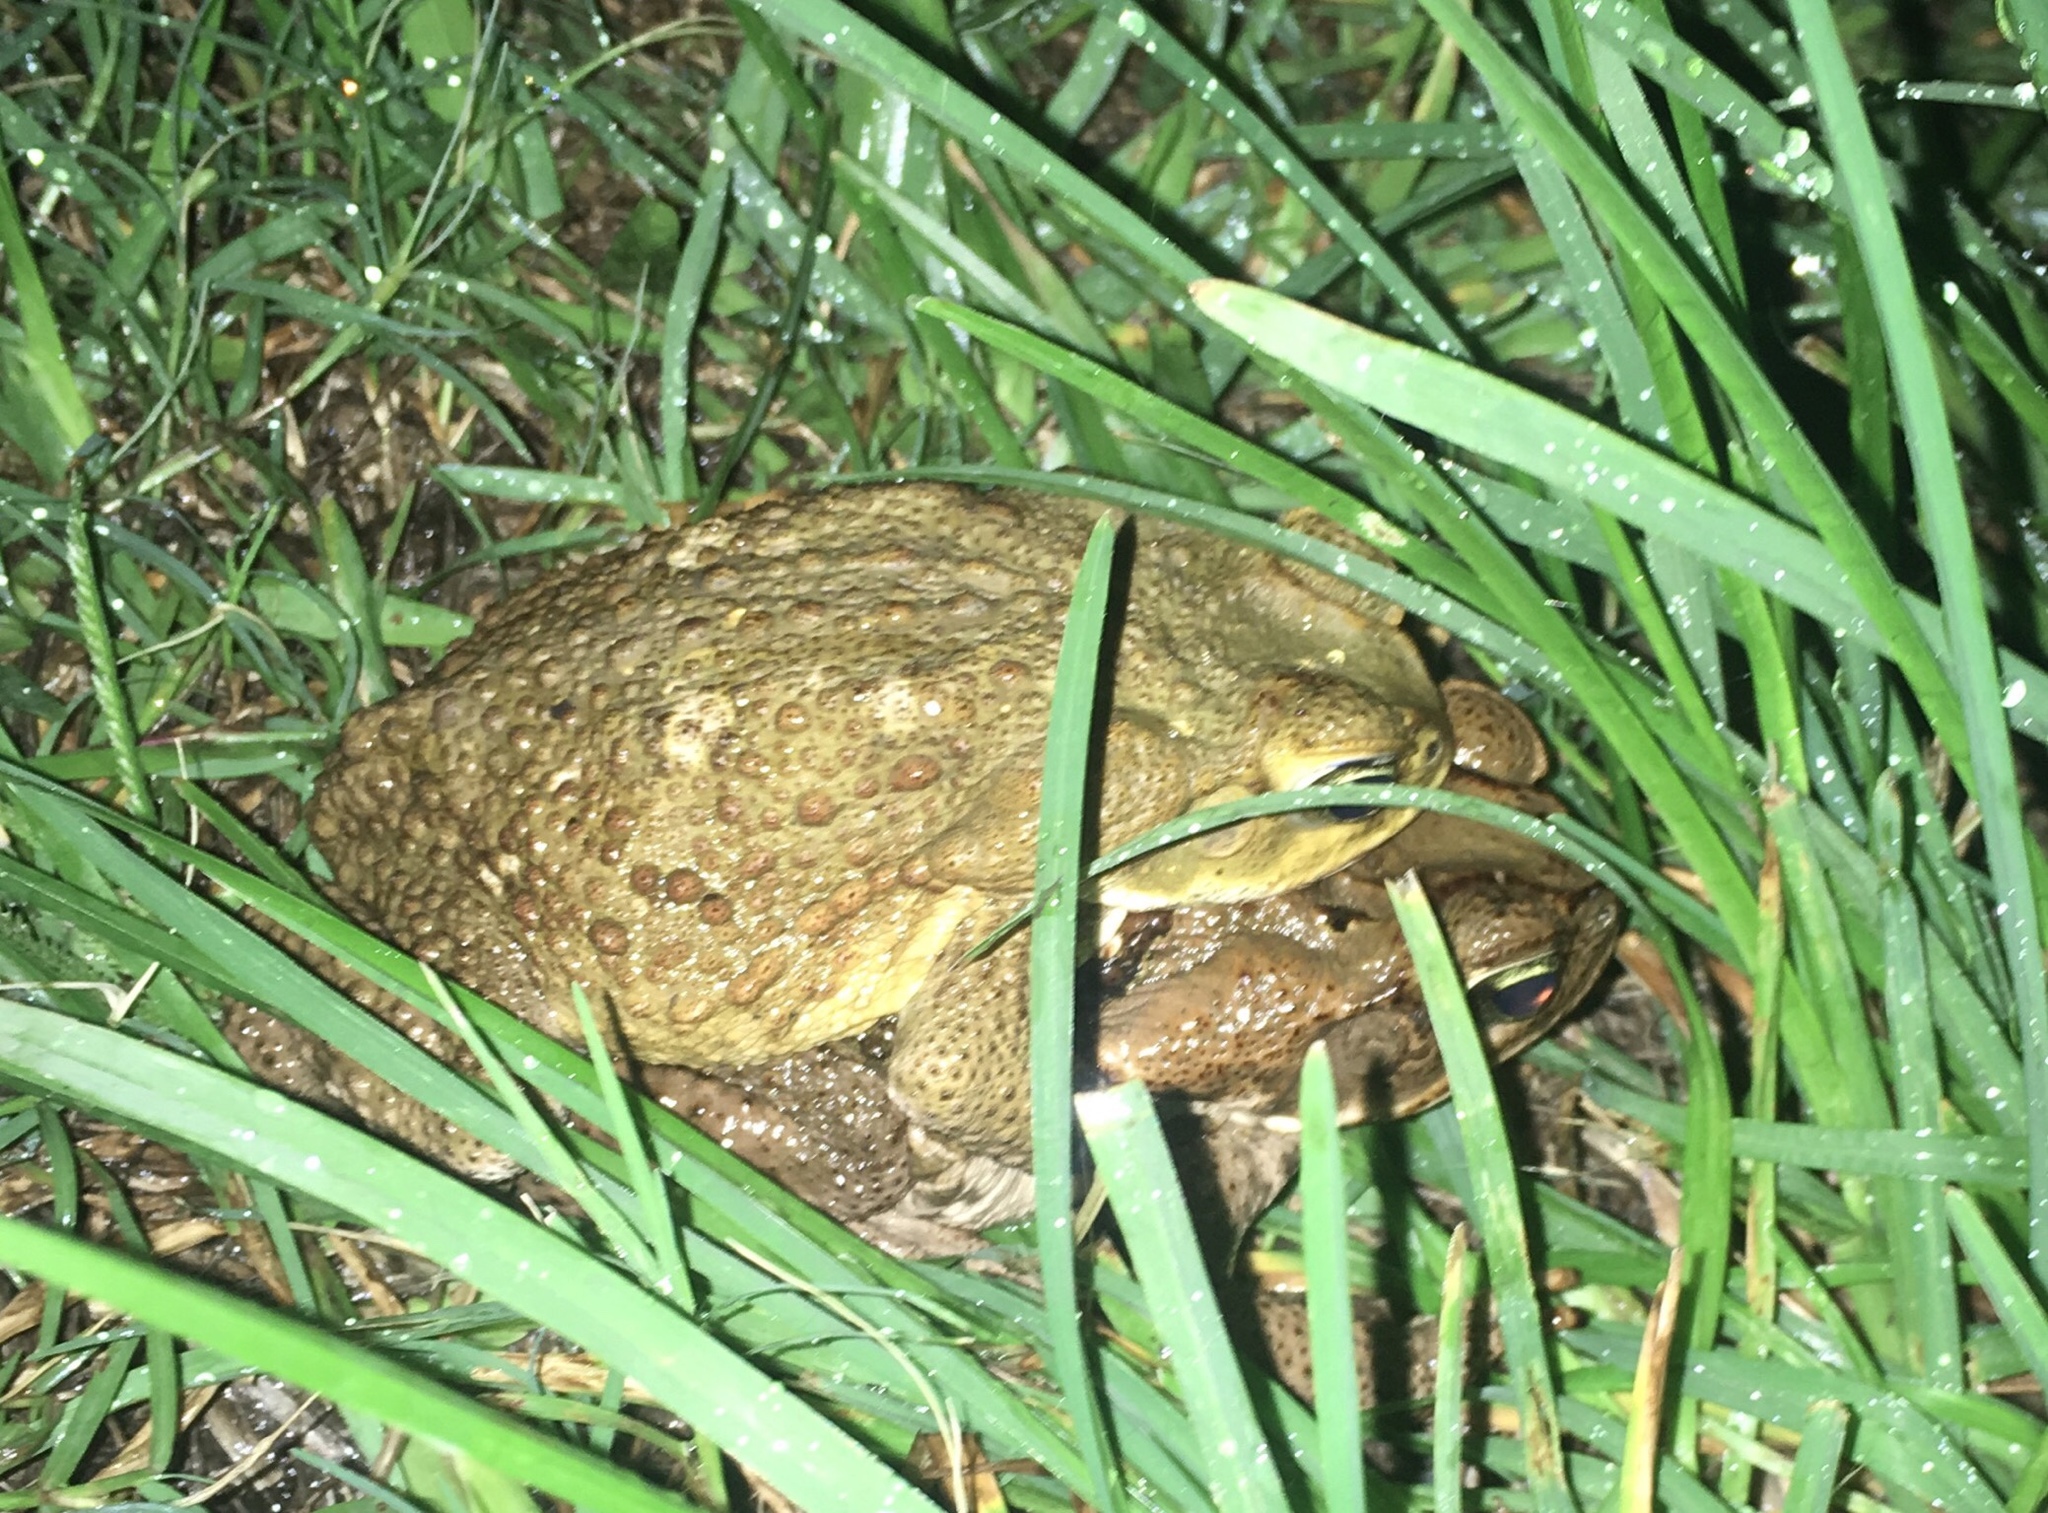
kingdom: Animalia
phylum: Chordata
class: Amphibia
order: Anura
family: Bufonidae
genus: Rhinella
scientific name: Rhinella marina
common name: Cane toad
